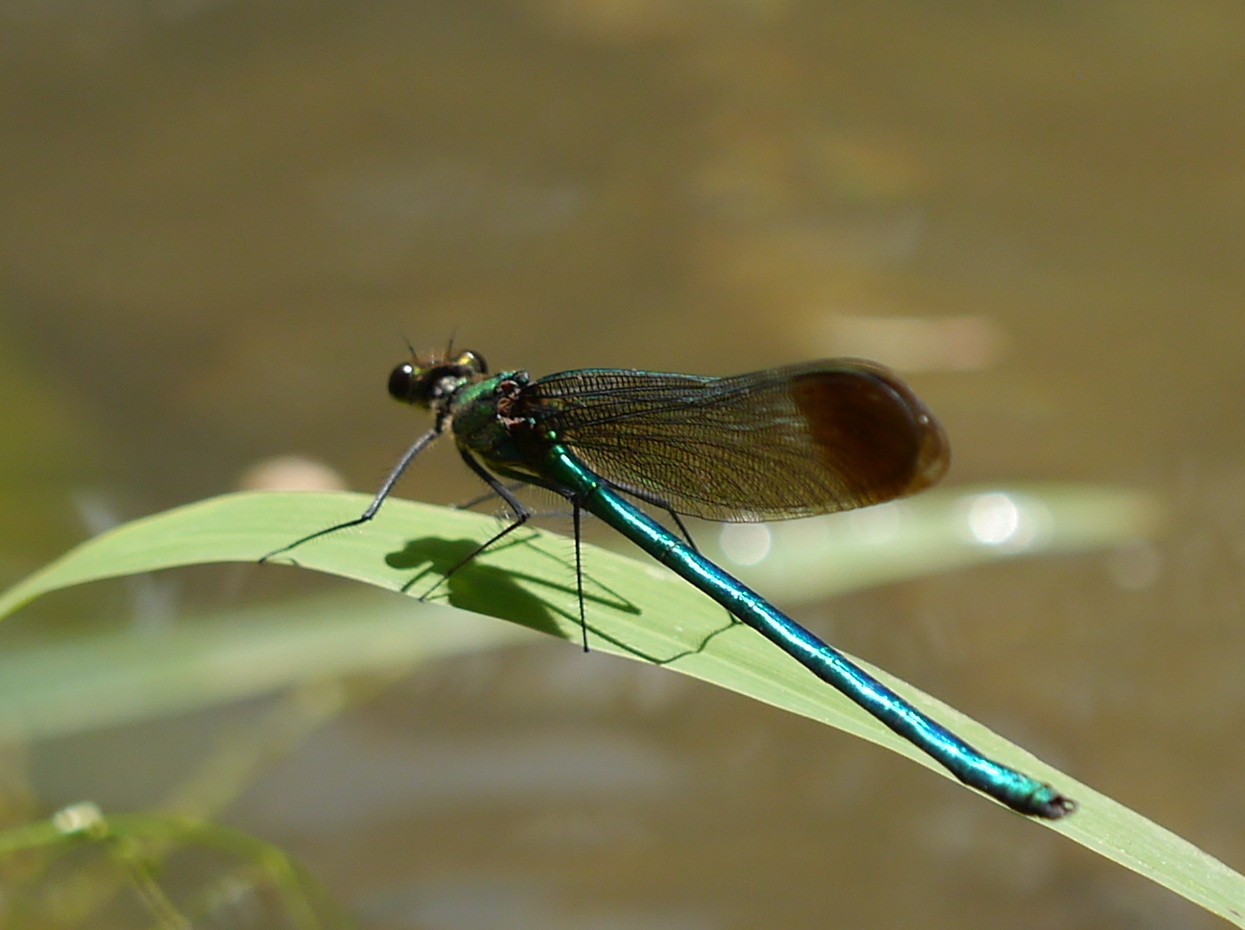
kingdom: Animalia
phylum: Arthropoda
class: Insecta
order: Odonata
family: Calopterygidae
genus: Calopteryx
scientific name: Calopteryx dimidiata
